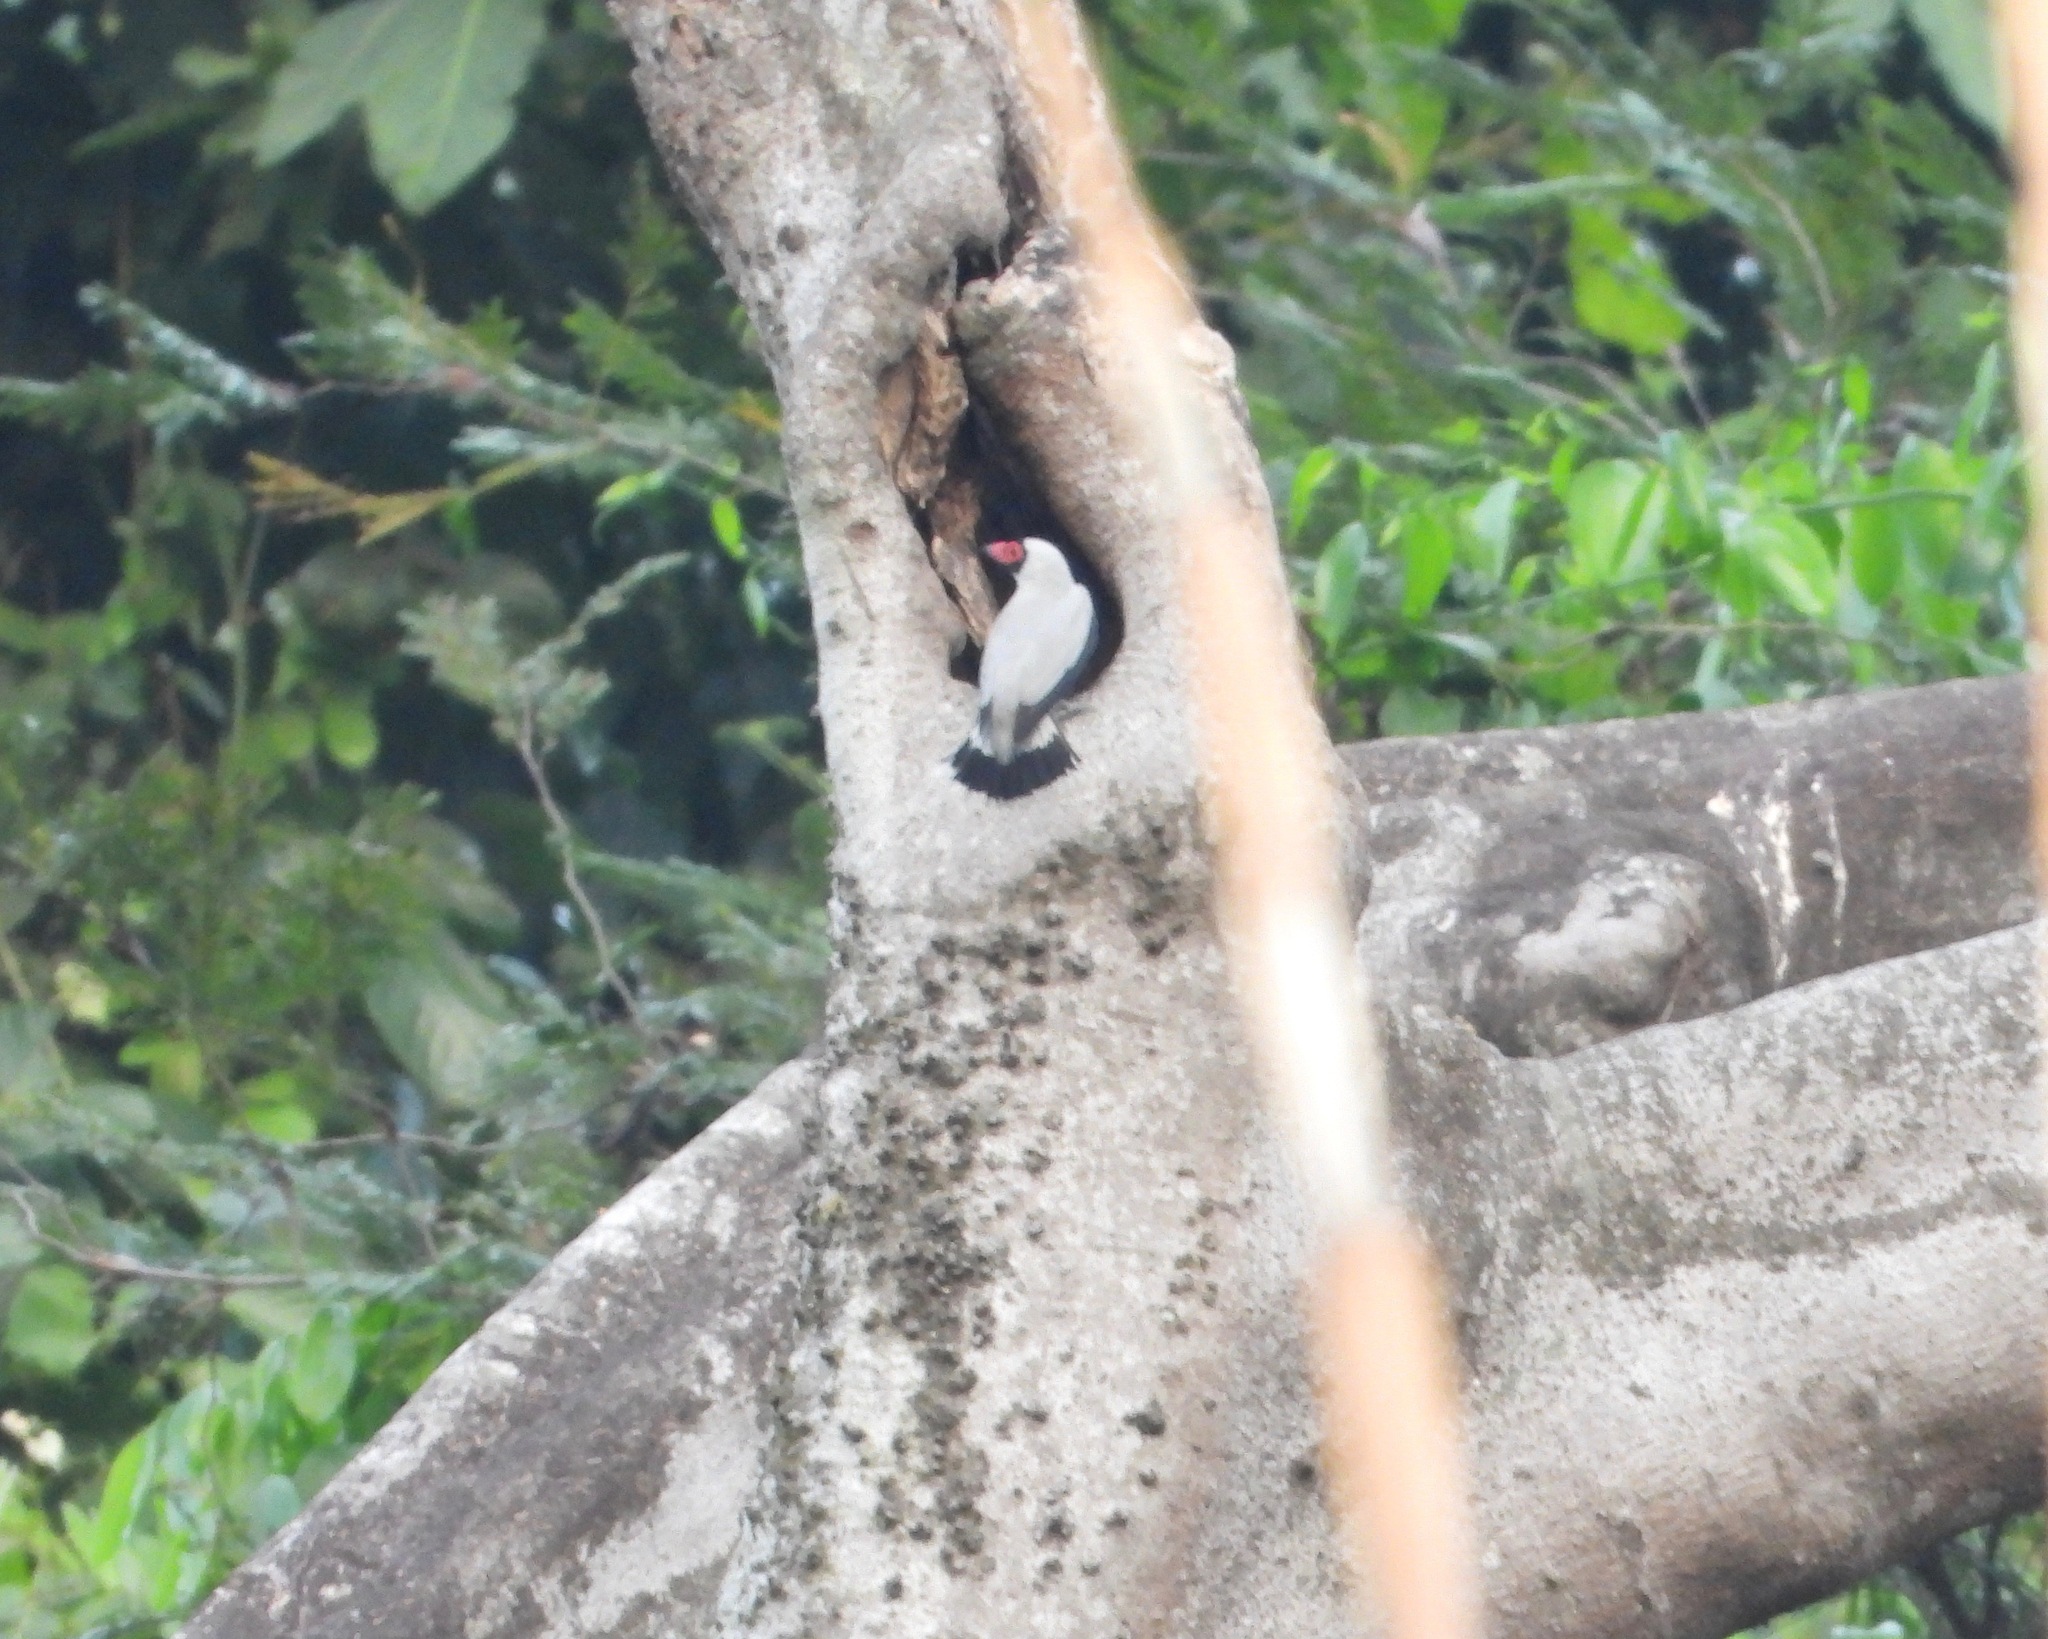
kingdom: Animalia
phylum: Chordata
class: Aves
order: Passeriformes
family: Cotingidae
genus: Tityra
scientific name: Tityra semifasciata
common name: Masked tityra
